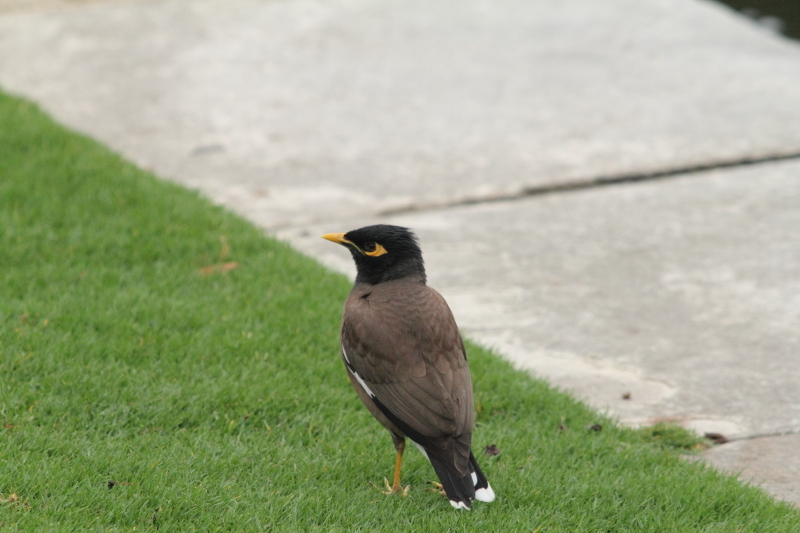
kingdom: Animalia
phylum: Chordata
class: Aves
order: Passeriformes
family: Sturnidae
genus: Acridotheres
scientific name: Acridotheres tristis
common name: Common myna
